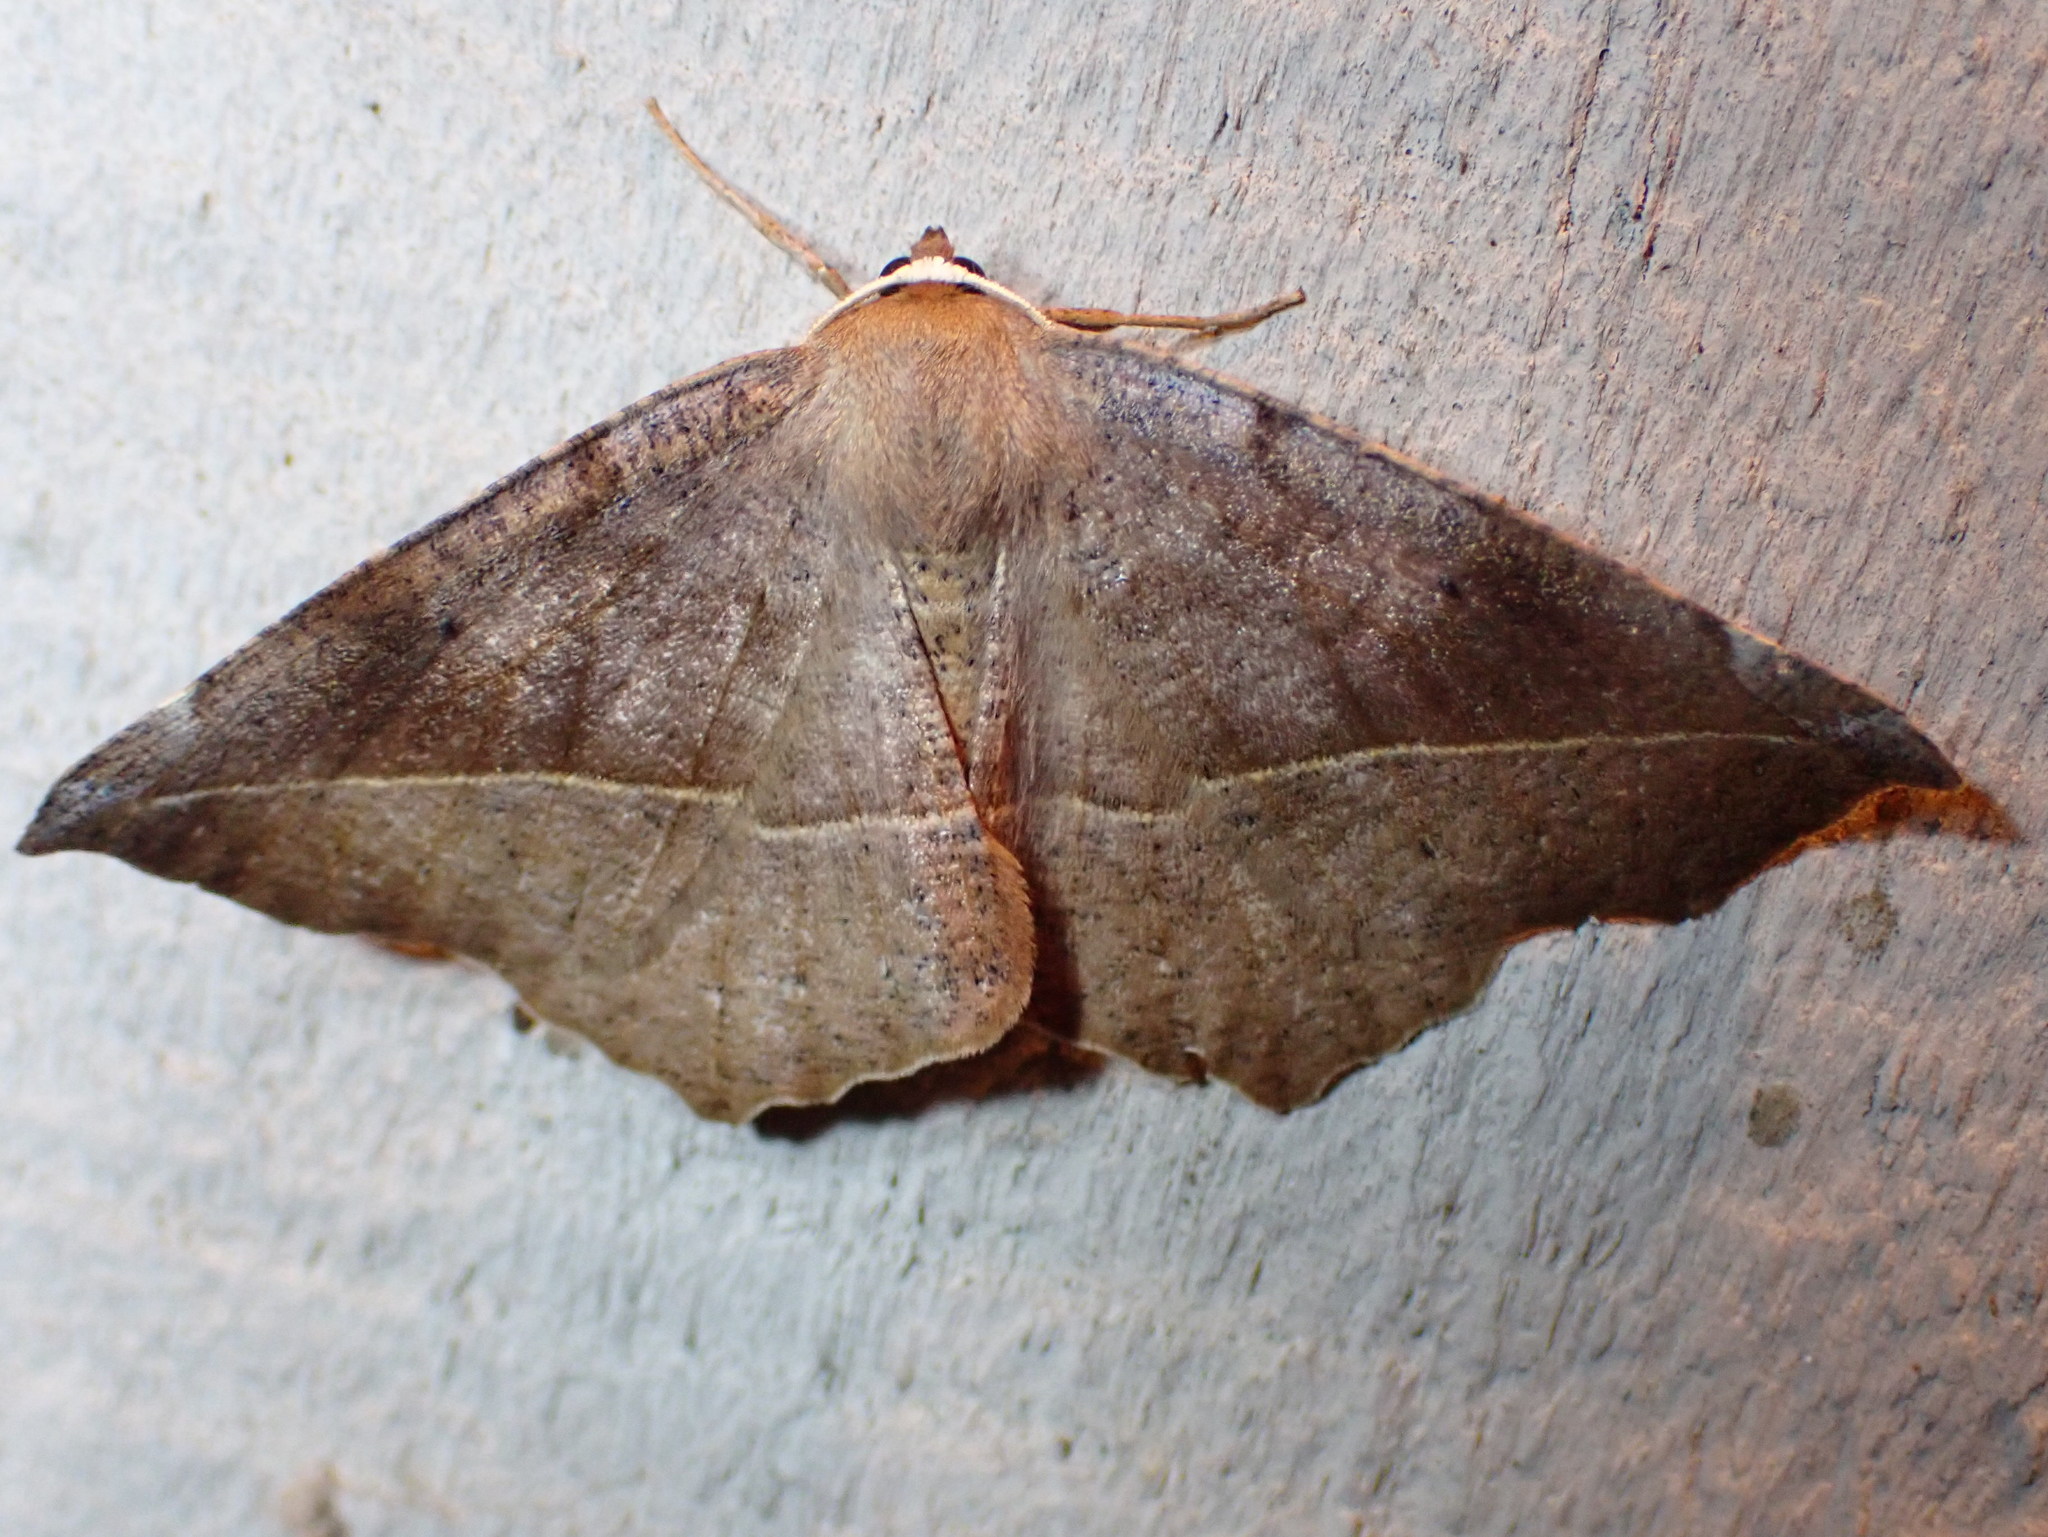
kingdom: Animalia
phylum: Arthropoda
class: Insecta
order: Lepidoptera
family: Geometridae
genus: Eutrapela
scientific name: Eutrapela clemataria
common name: Curved-toothed geometer
